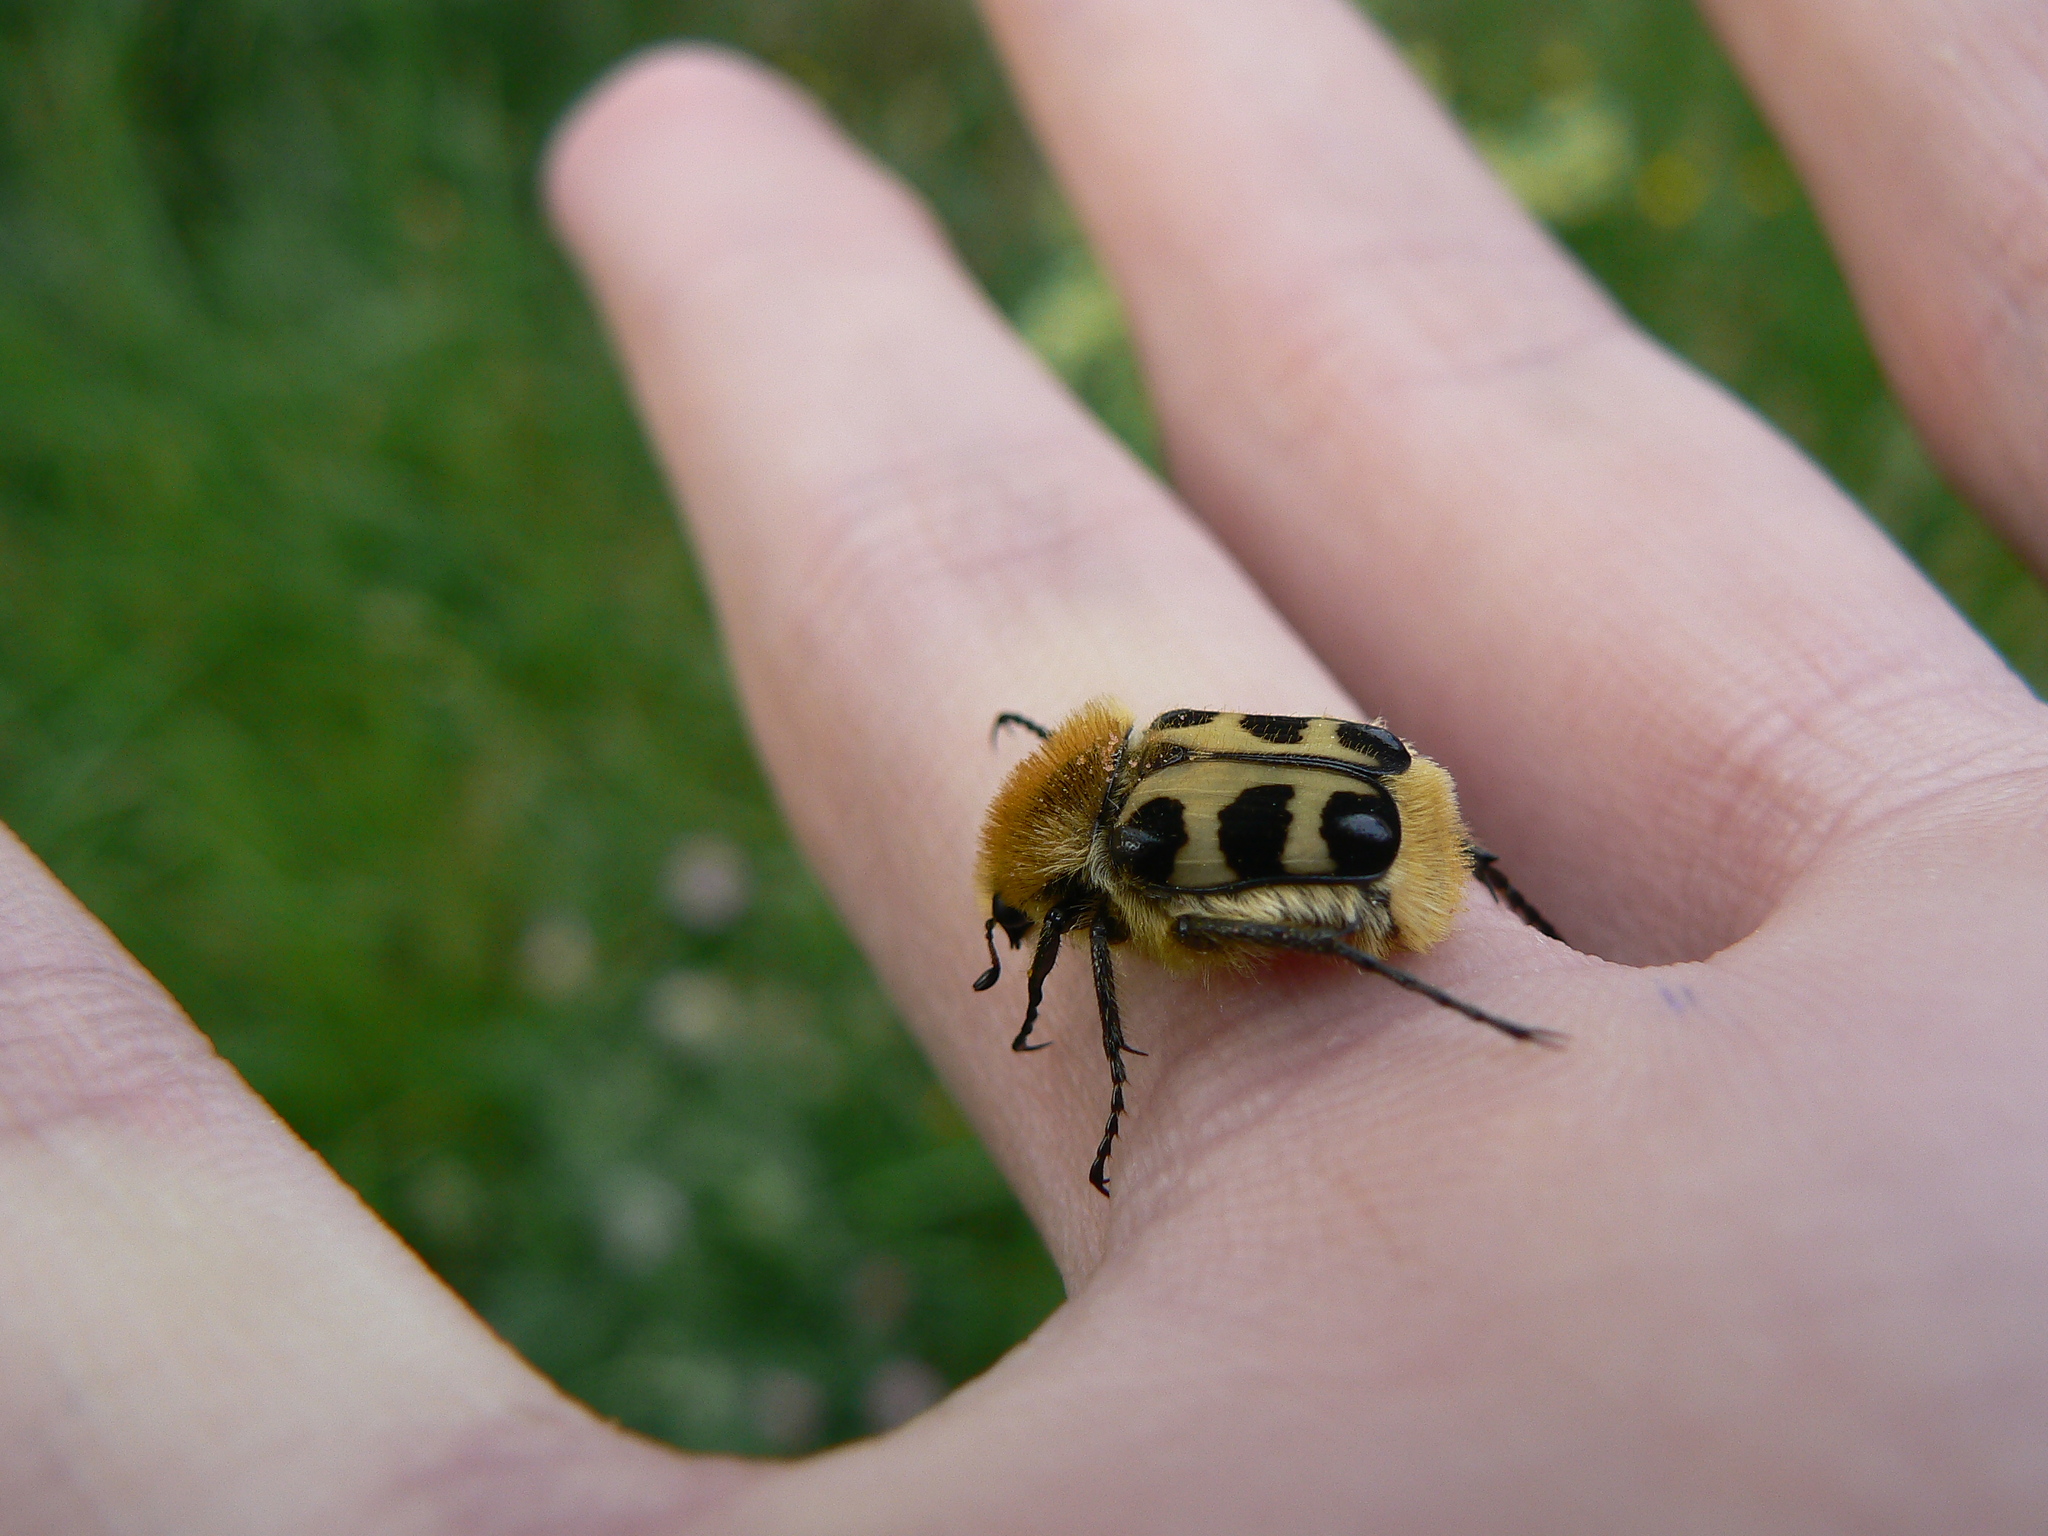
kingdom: Animalia
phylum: Arthropoda
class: Insecta
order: Coleoptera
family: Scarabaeidae
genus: Trichius
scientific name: Trichius gallicus
